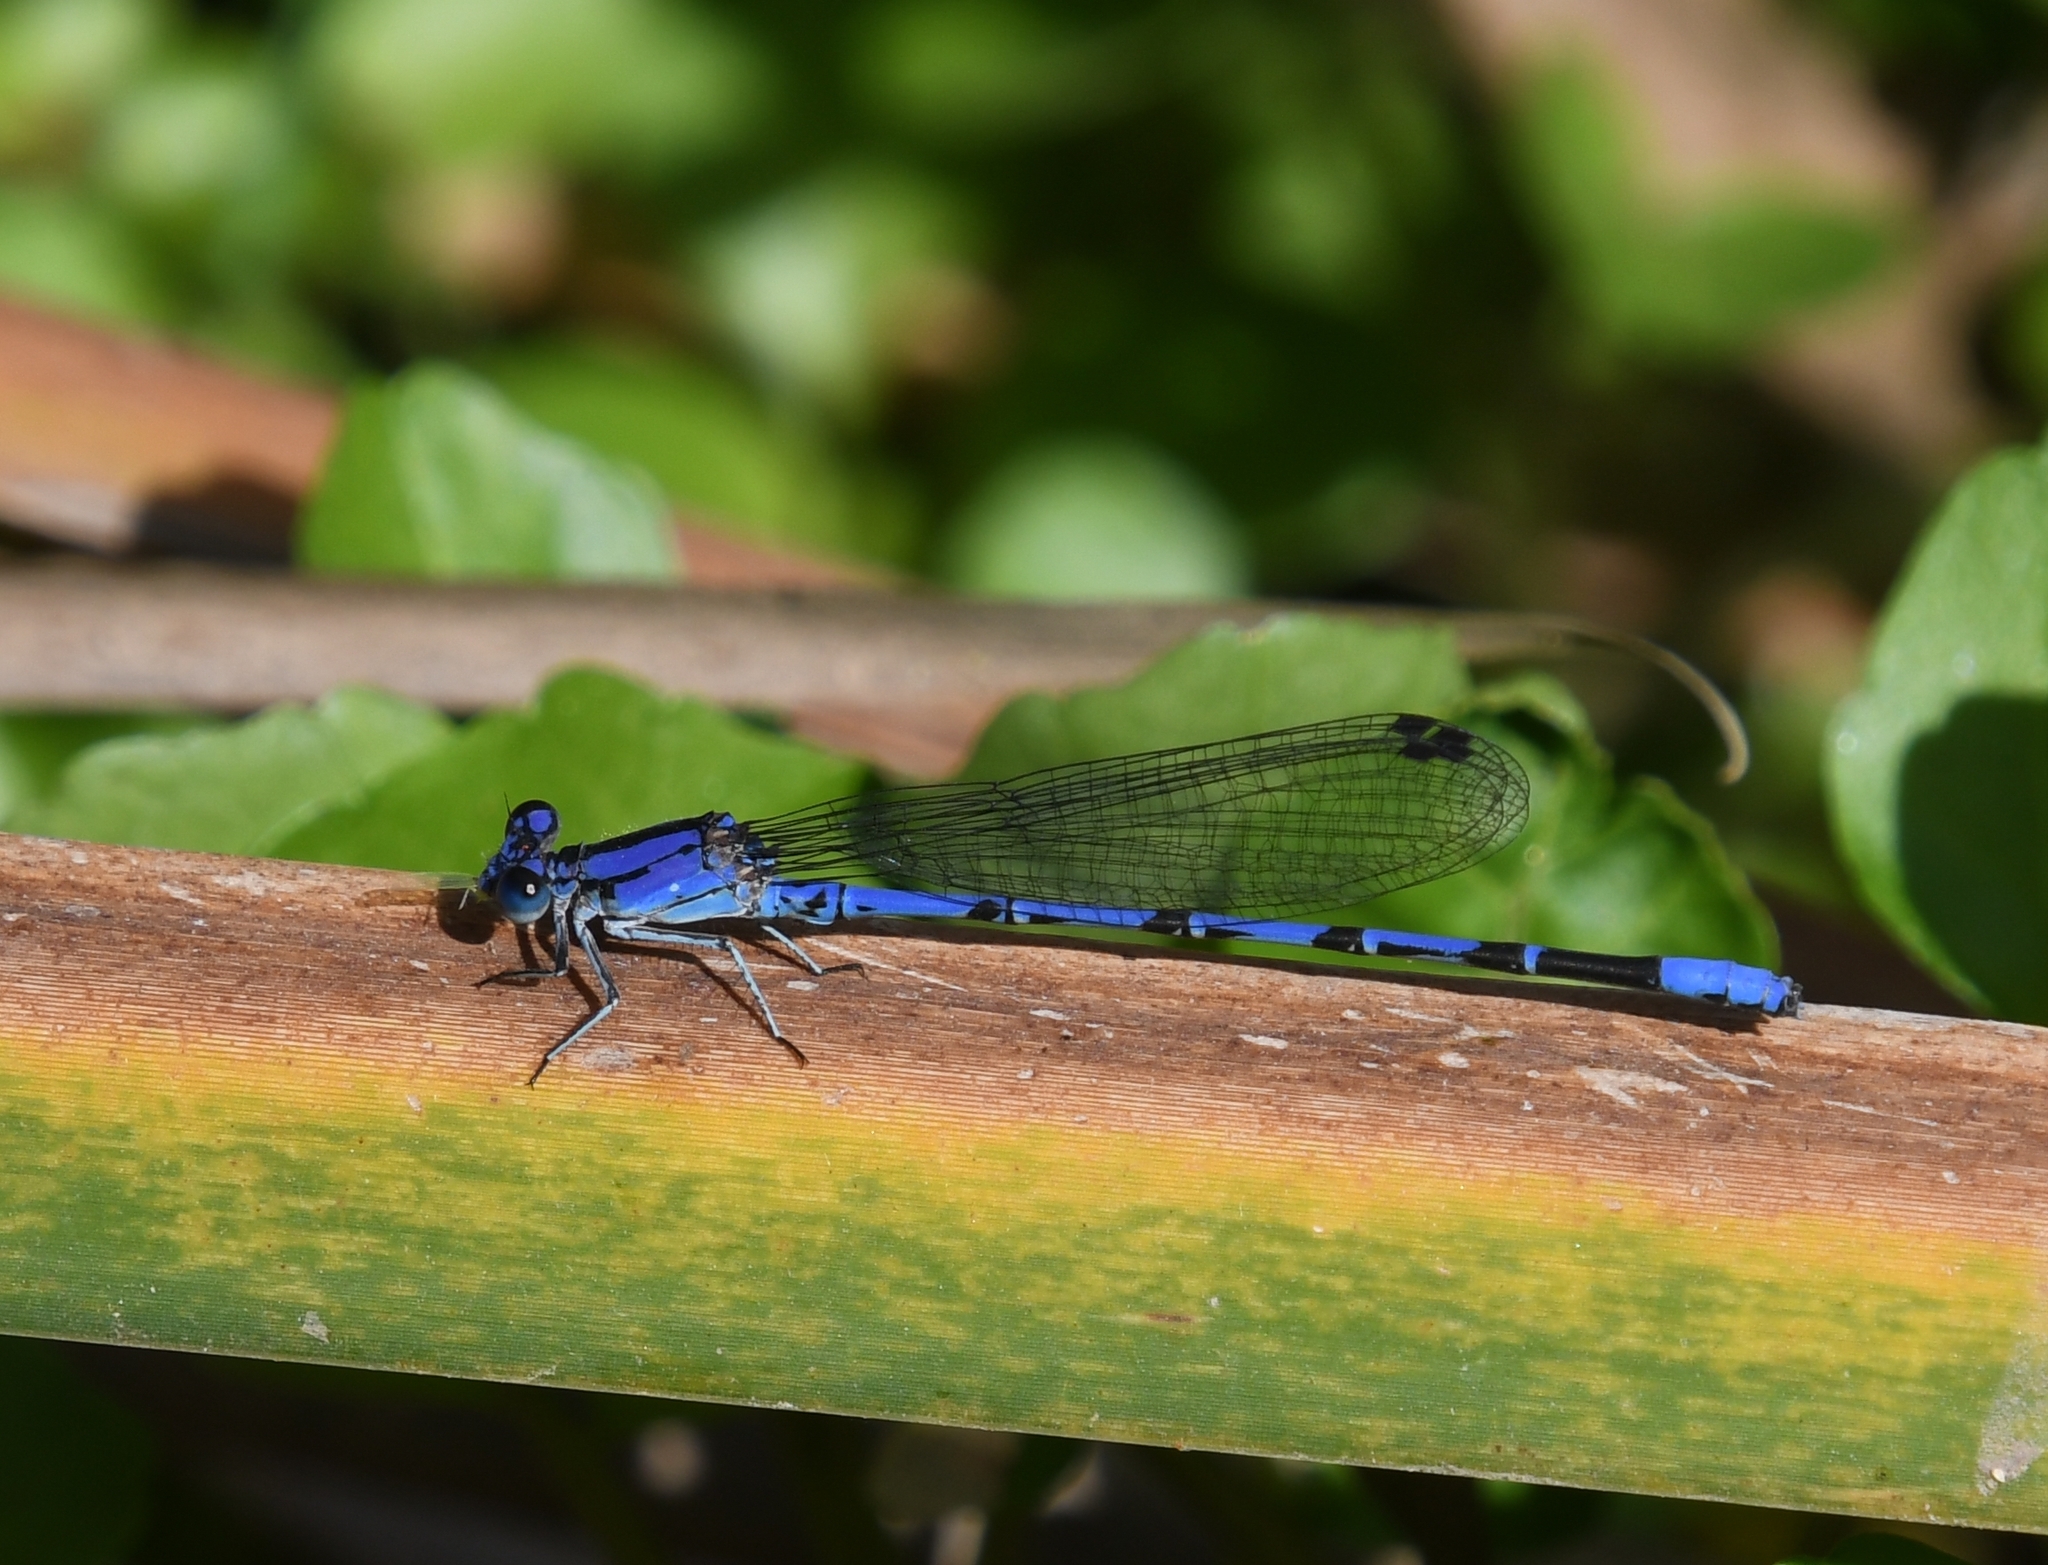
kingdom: Animalia
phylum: Arthropoda
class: Insecta
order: Odonata
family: Coenagrionidae
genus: Argia
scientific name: Argia extranea
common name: Spine-tipped dancer
